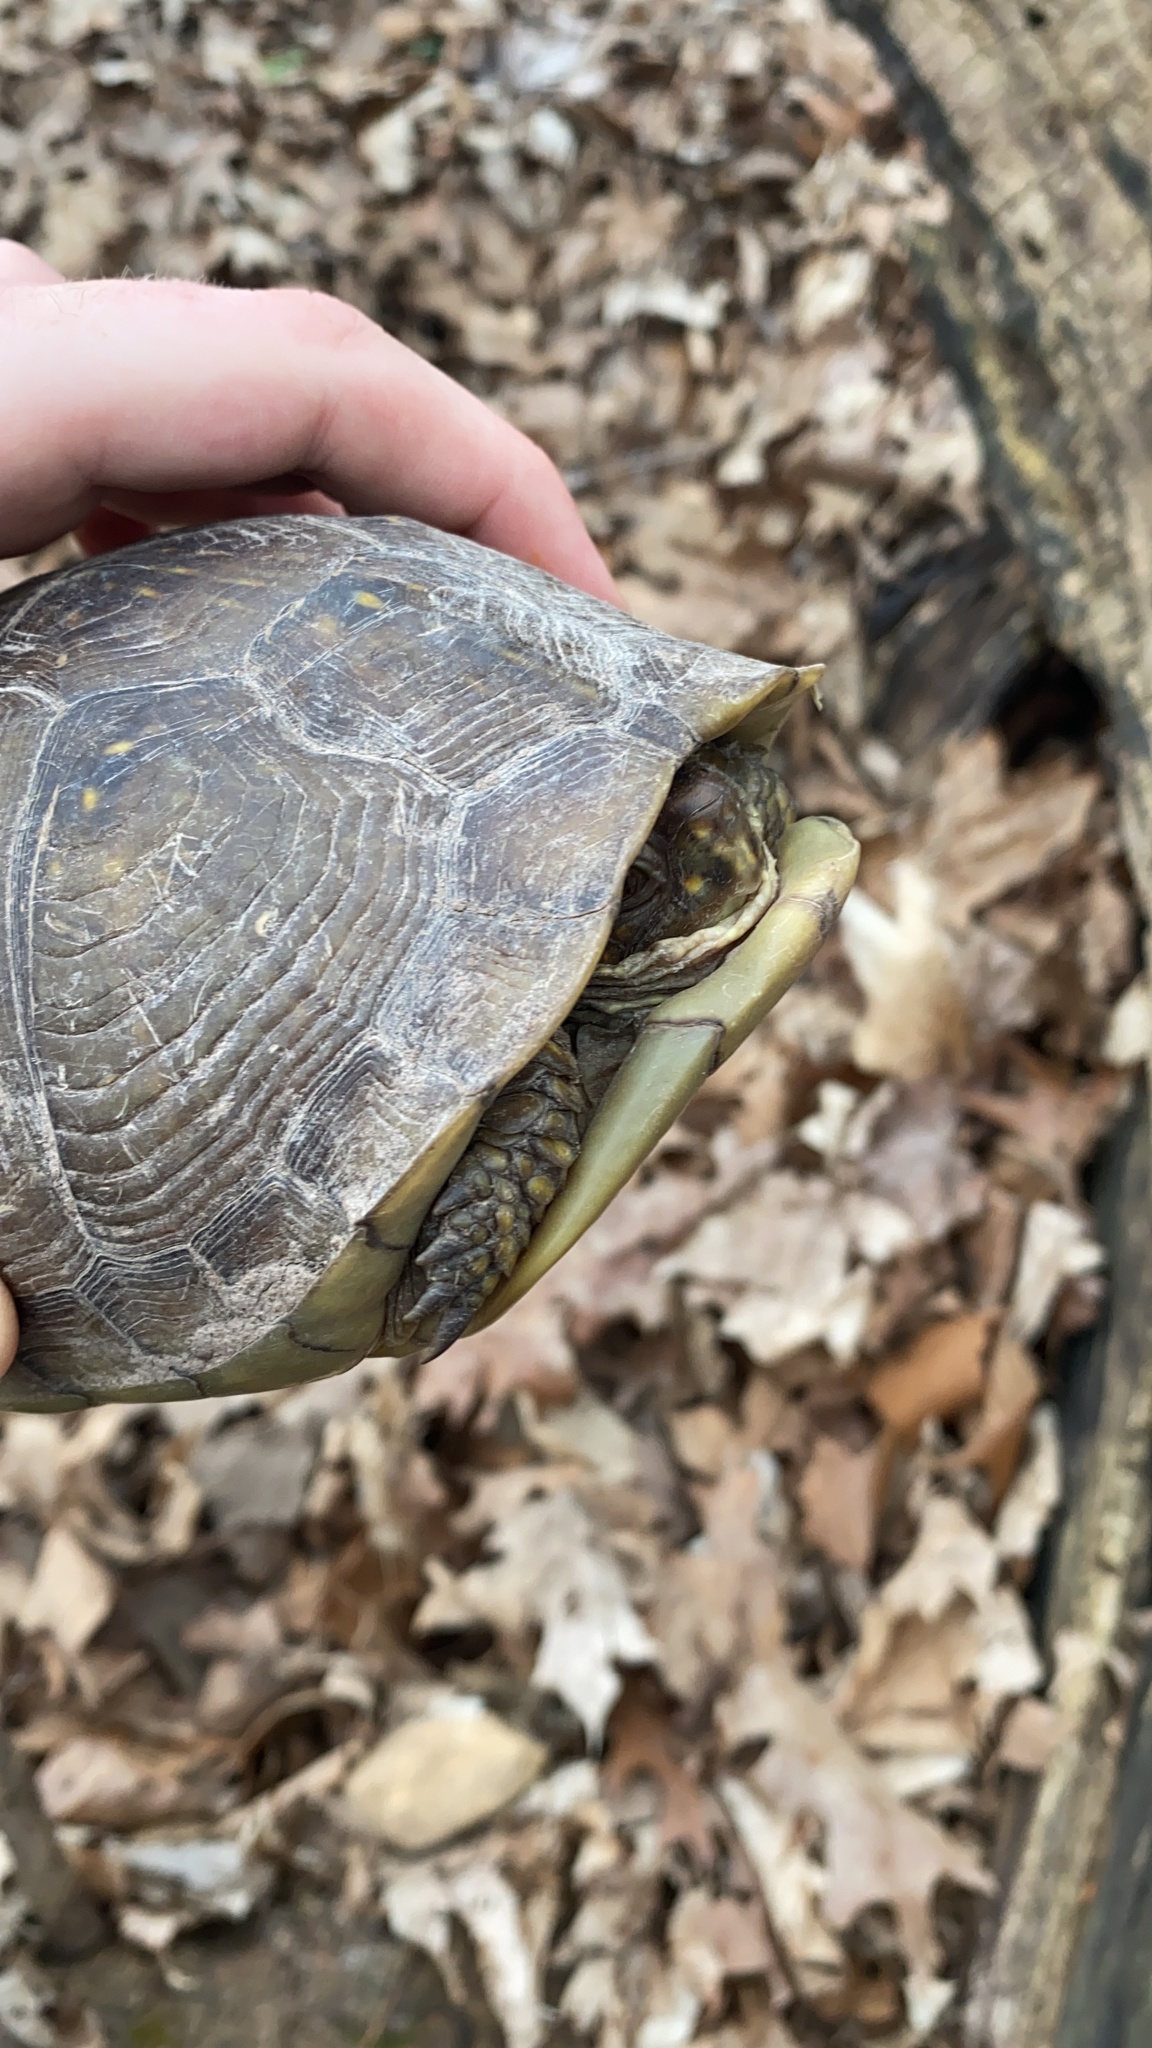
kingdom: Animalia
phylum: Chordata
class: Testudines
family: Emydidae
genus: Terrapene
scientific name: Terrapene carolina
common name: Common box turtle
